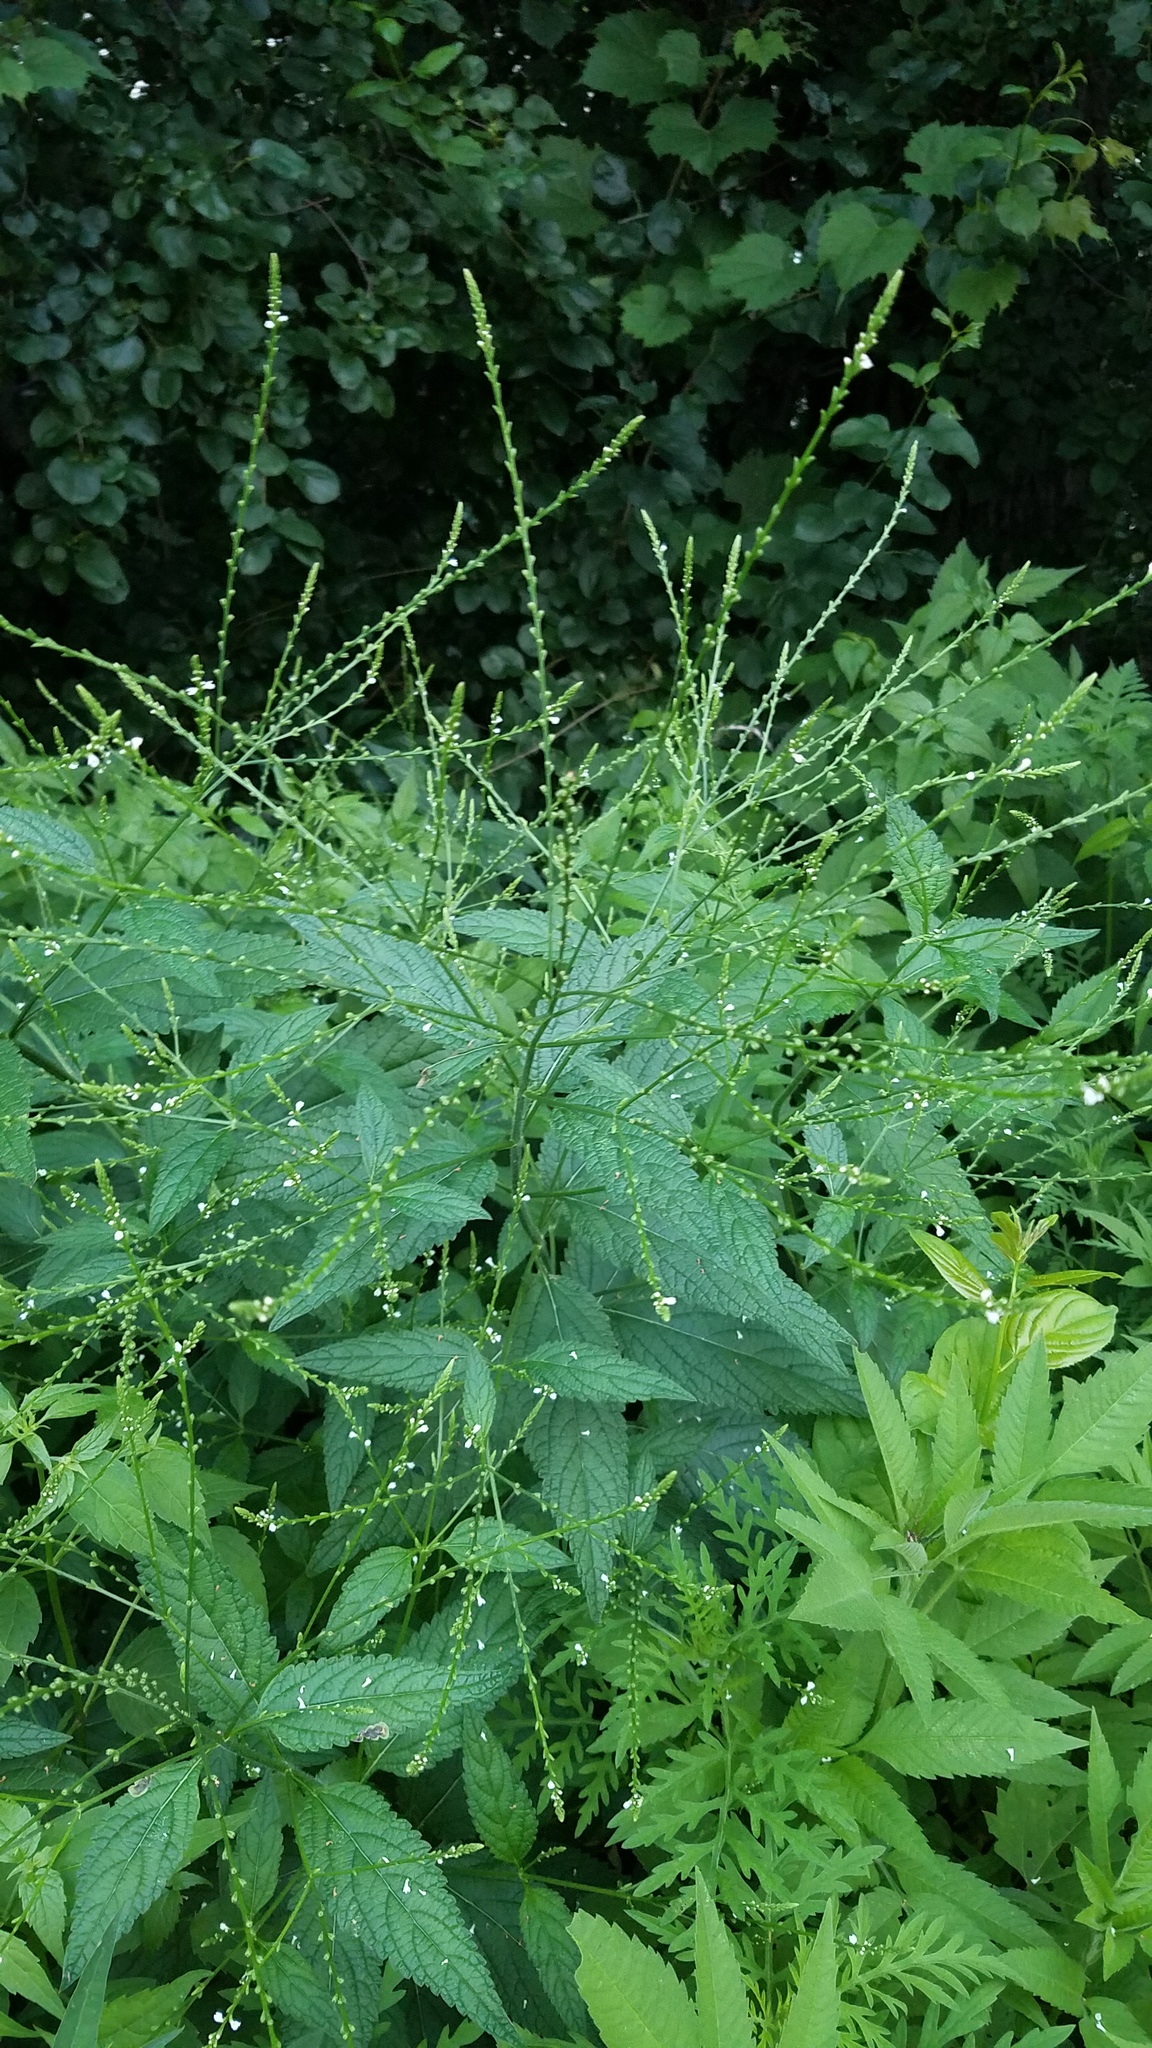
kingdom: Plantae
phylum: Tracheophyta
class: Magnoliopsida
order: Lamiales
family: Verbenaceae
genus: Verbena
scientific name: Verbena urticifolia
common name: Nettle-leaved vervain
